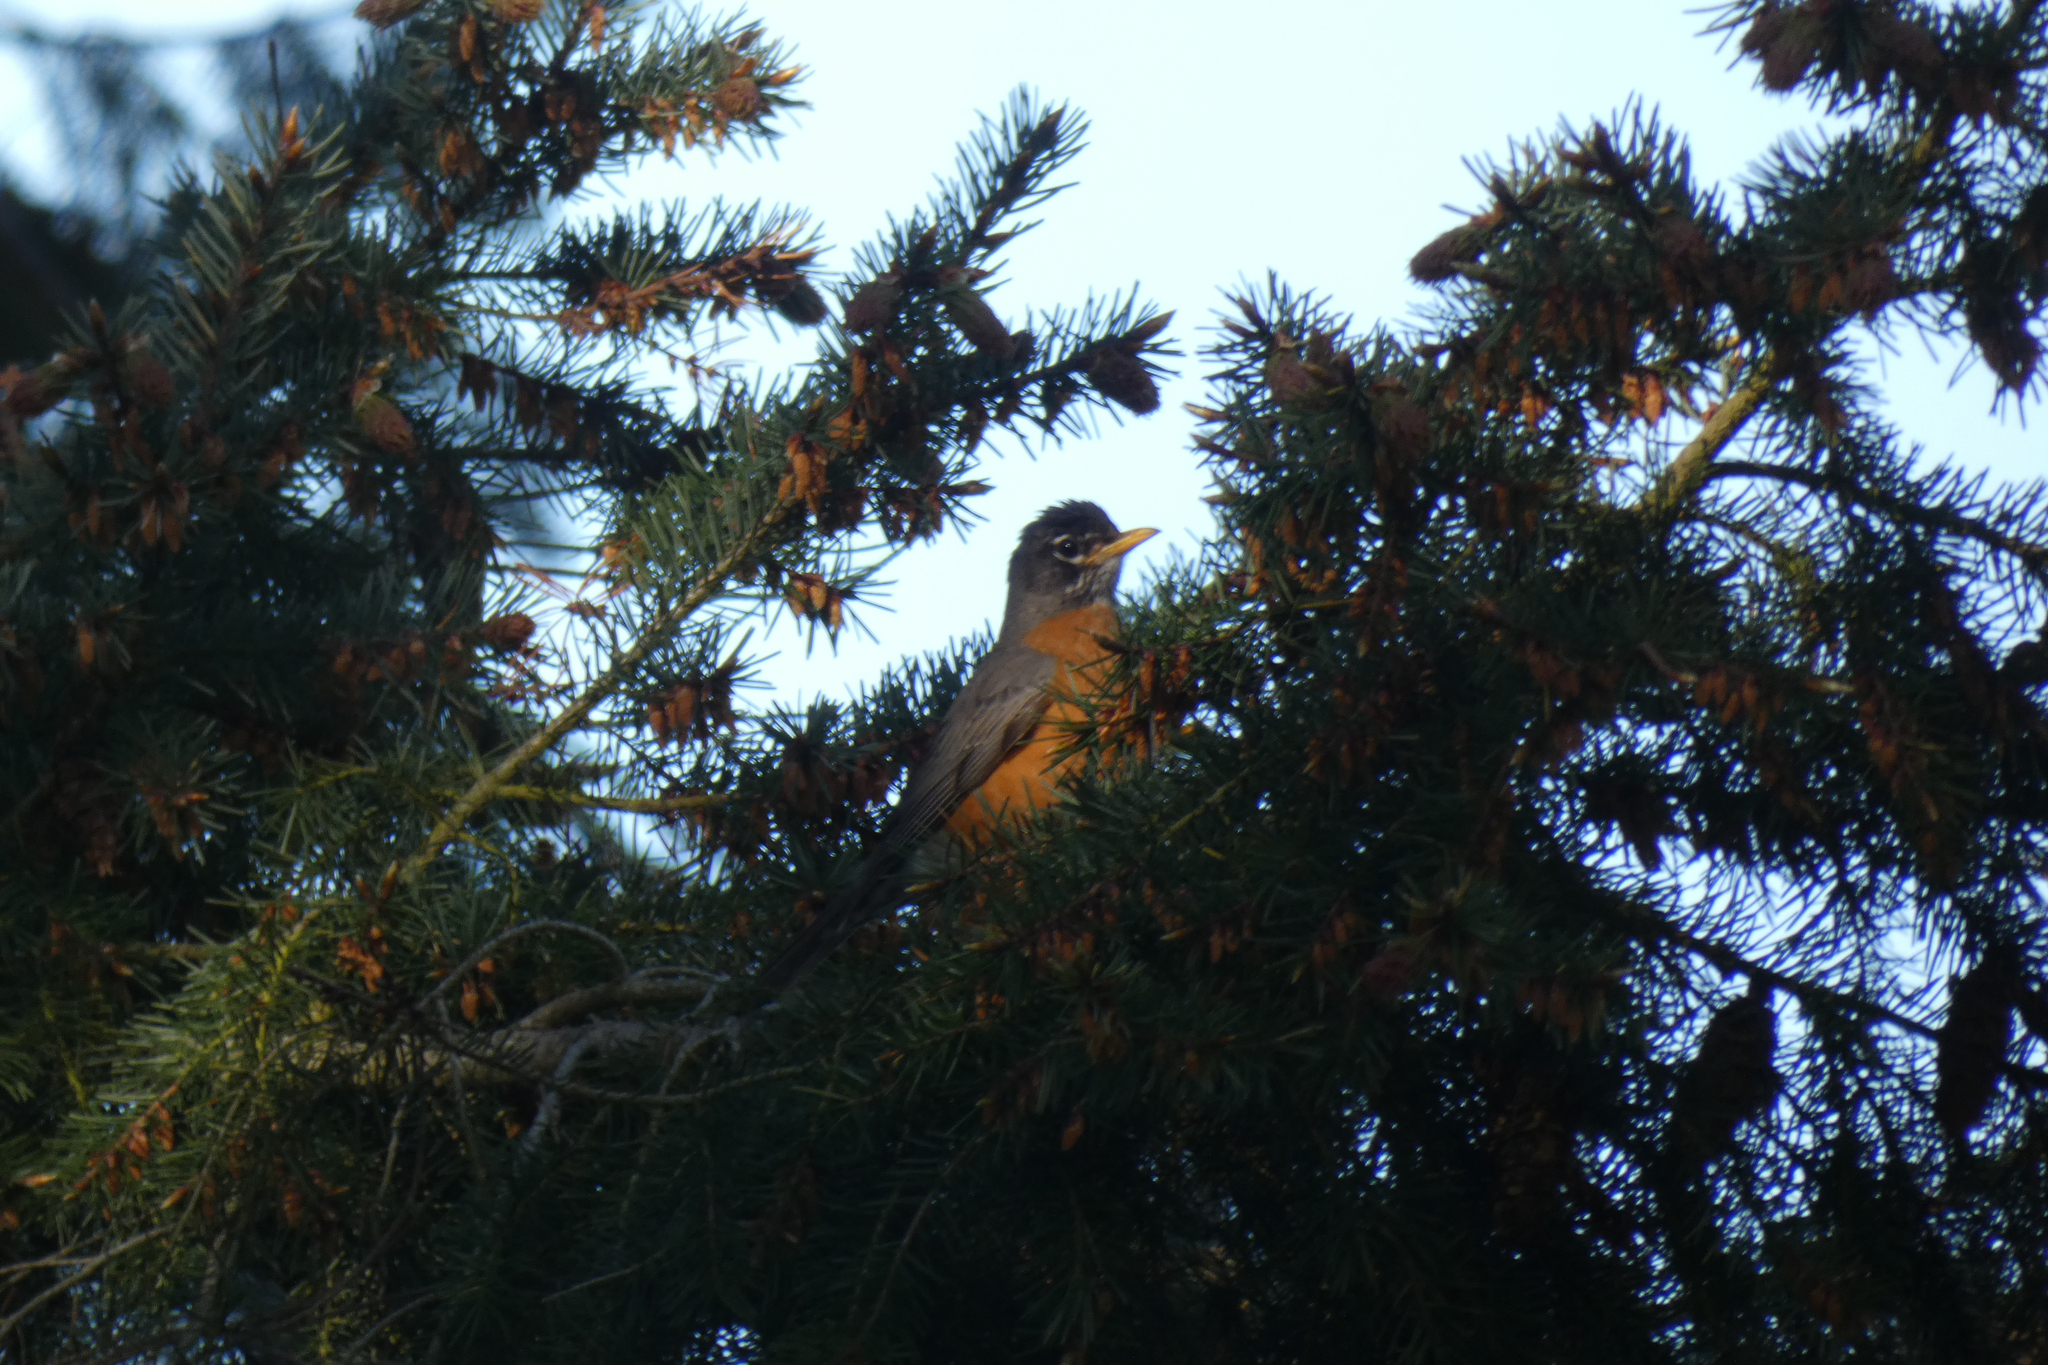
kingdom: Animalia
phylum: Chordata
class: Aves
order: Passeriformes
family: Turdidae
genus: Turdus
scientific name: Turdus migratorius
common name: American robin
